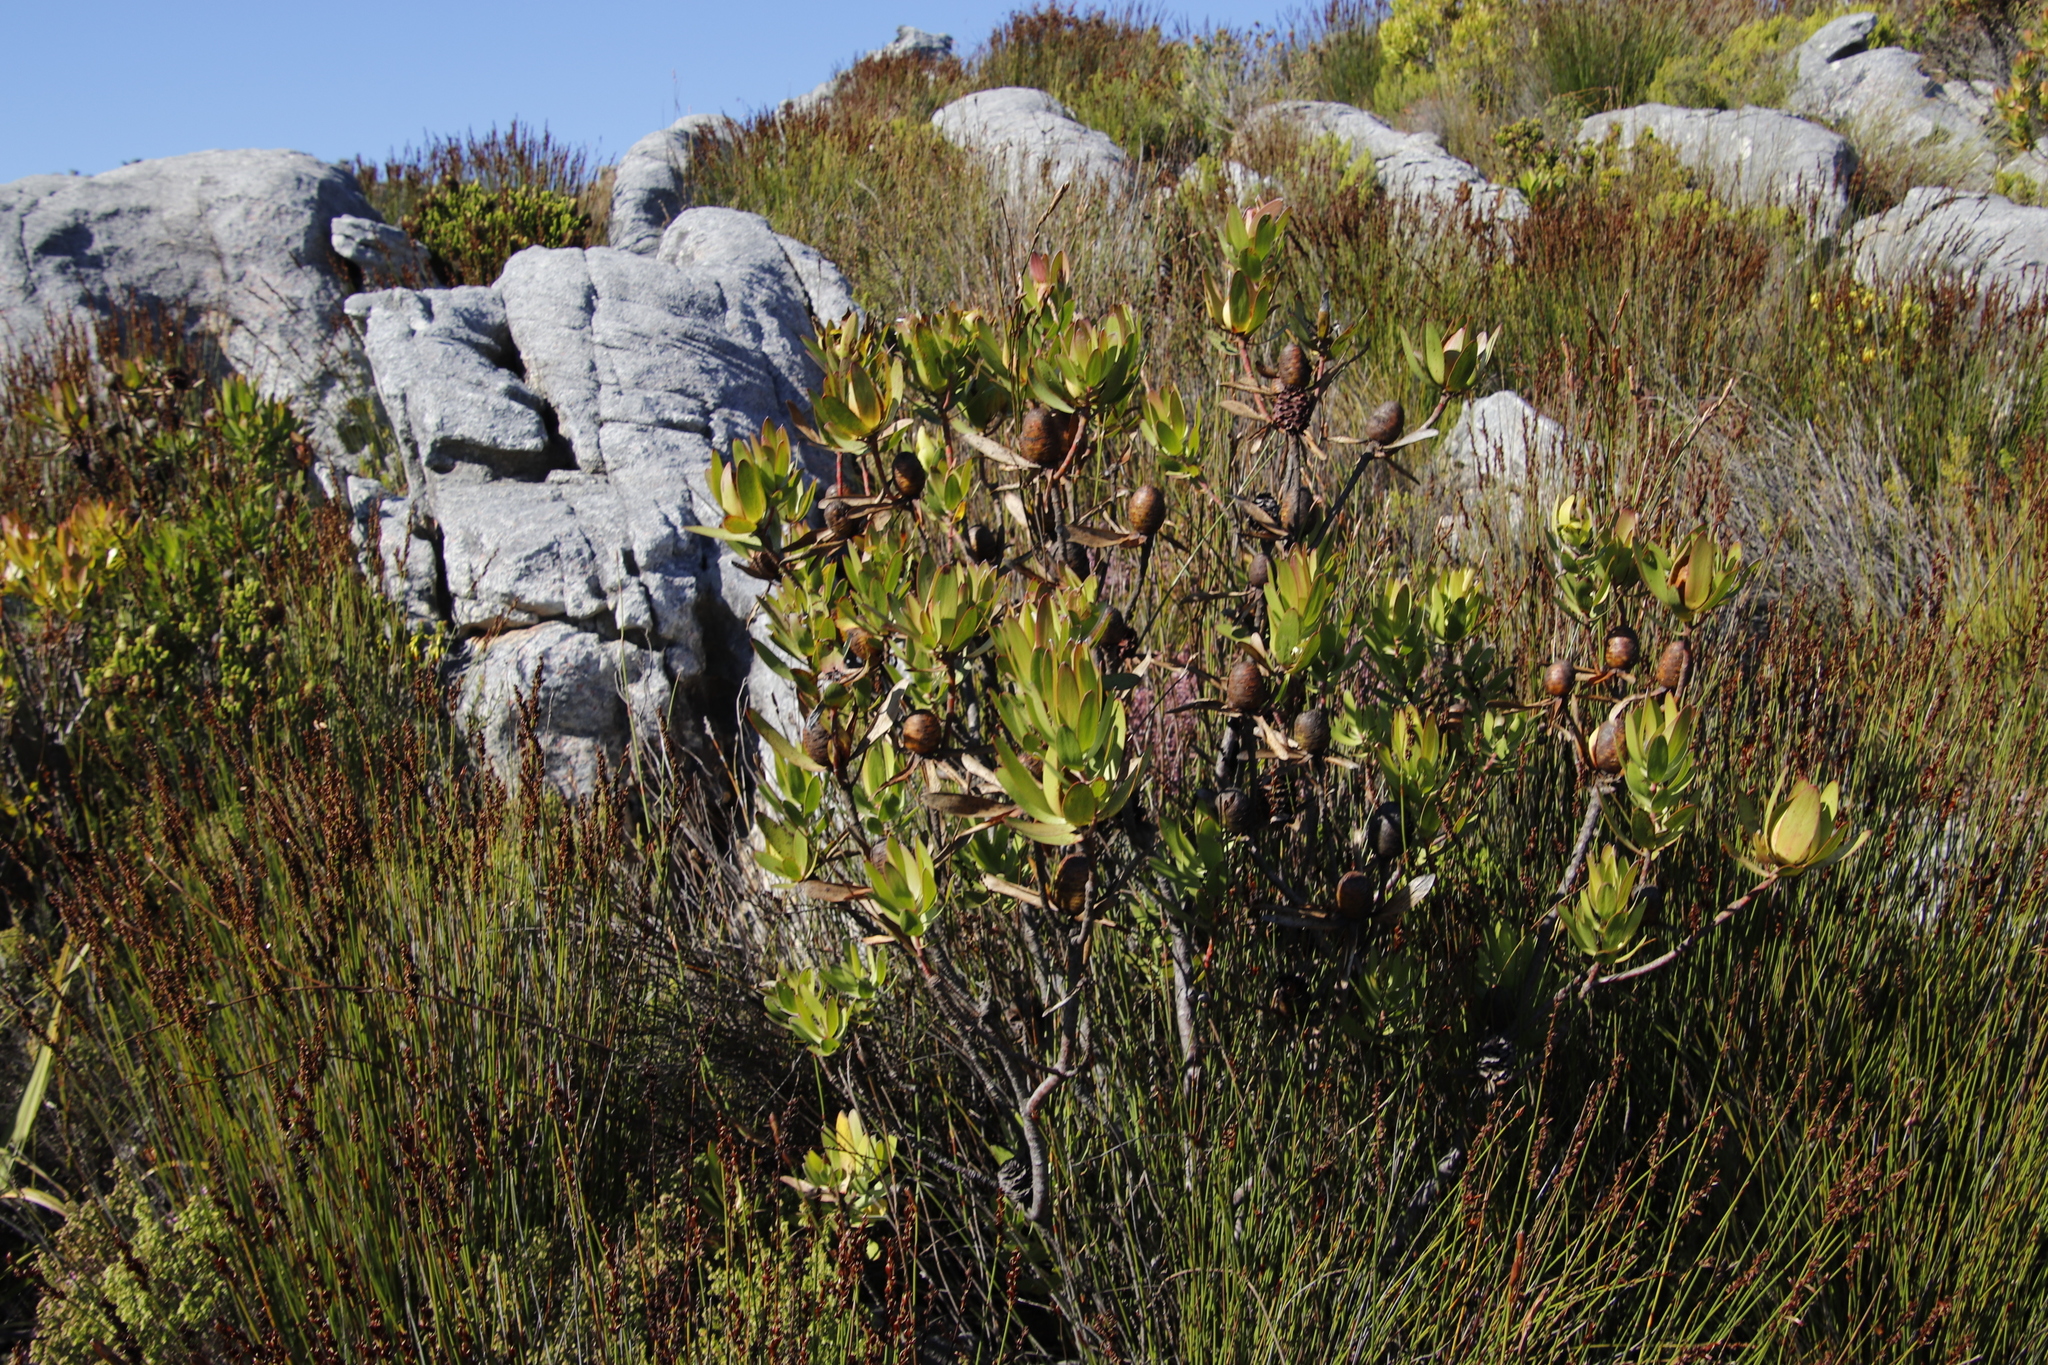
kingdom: Plantae
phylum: Tracheophyta
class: Magnoliopsida
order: Proteales
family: Proteaceae
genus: Leucadendron
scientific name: Leucadendron laureolum
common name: Golden sunshinebush
